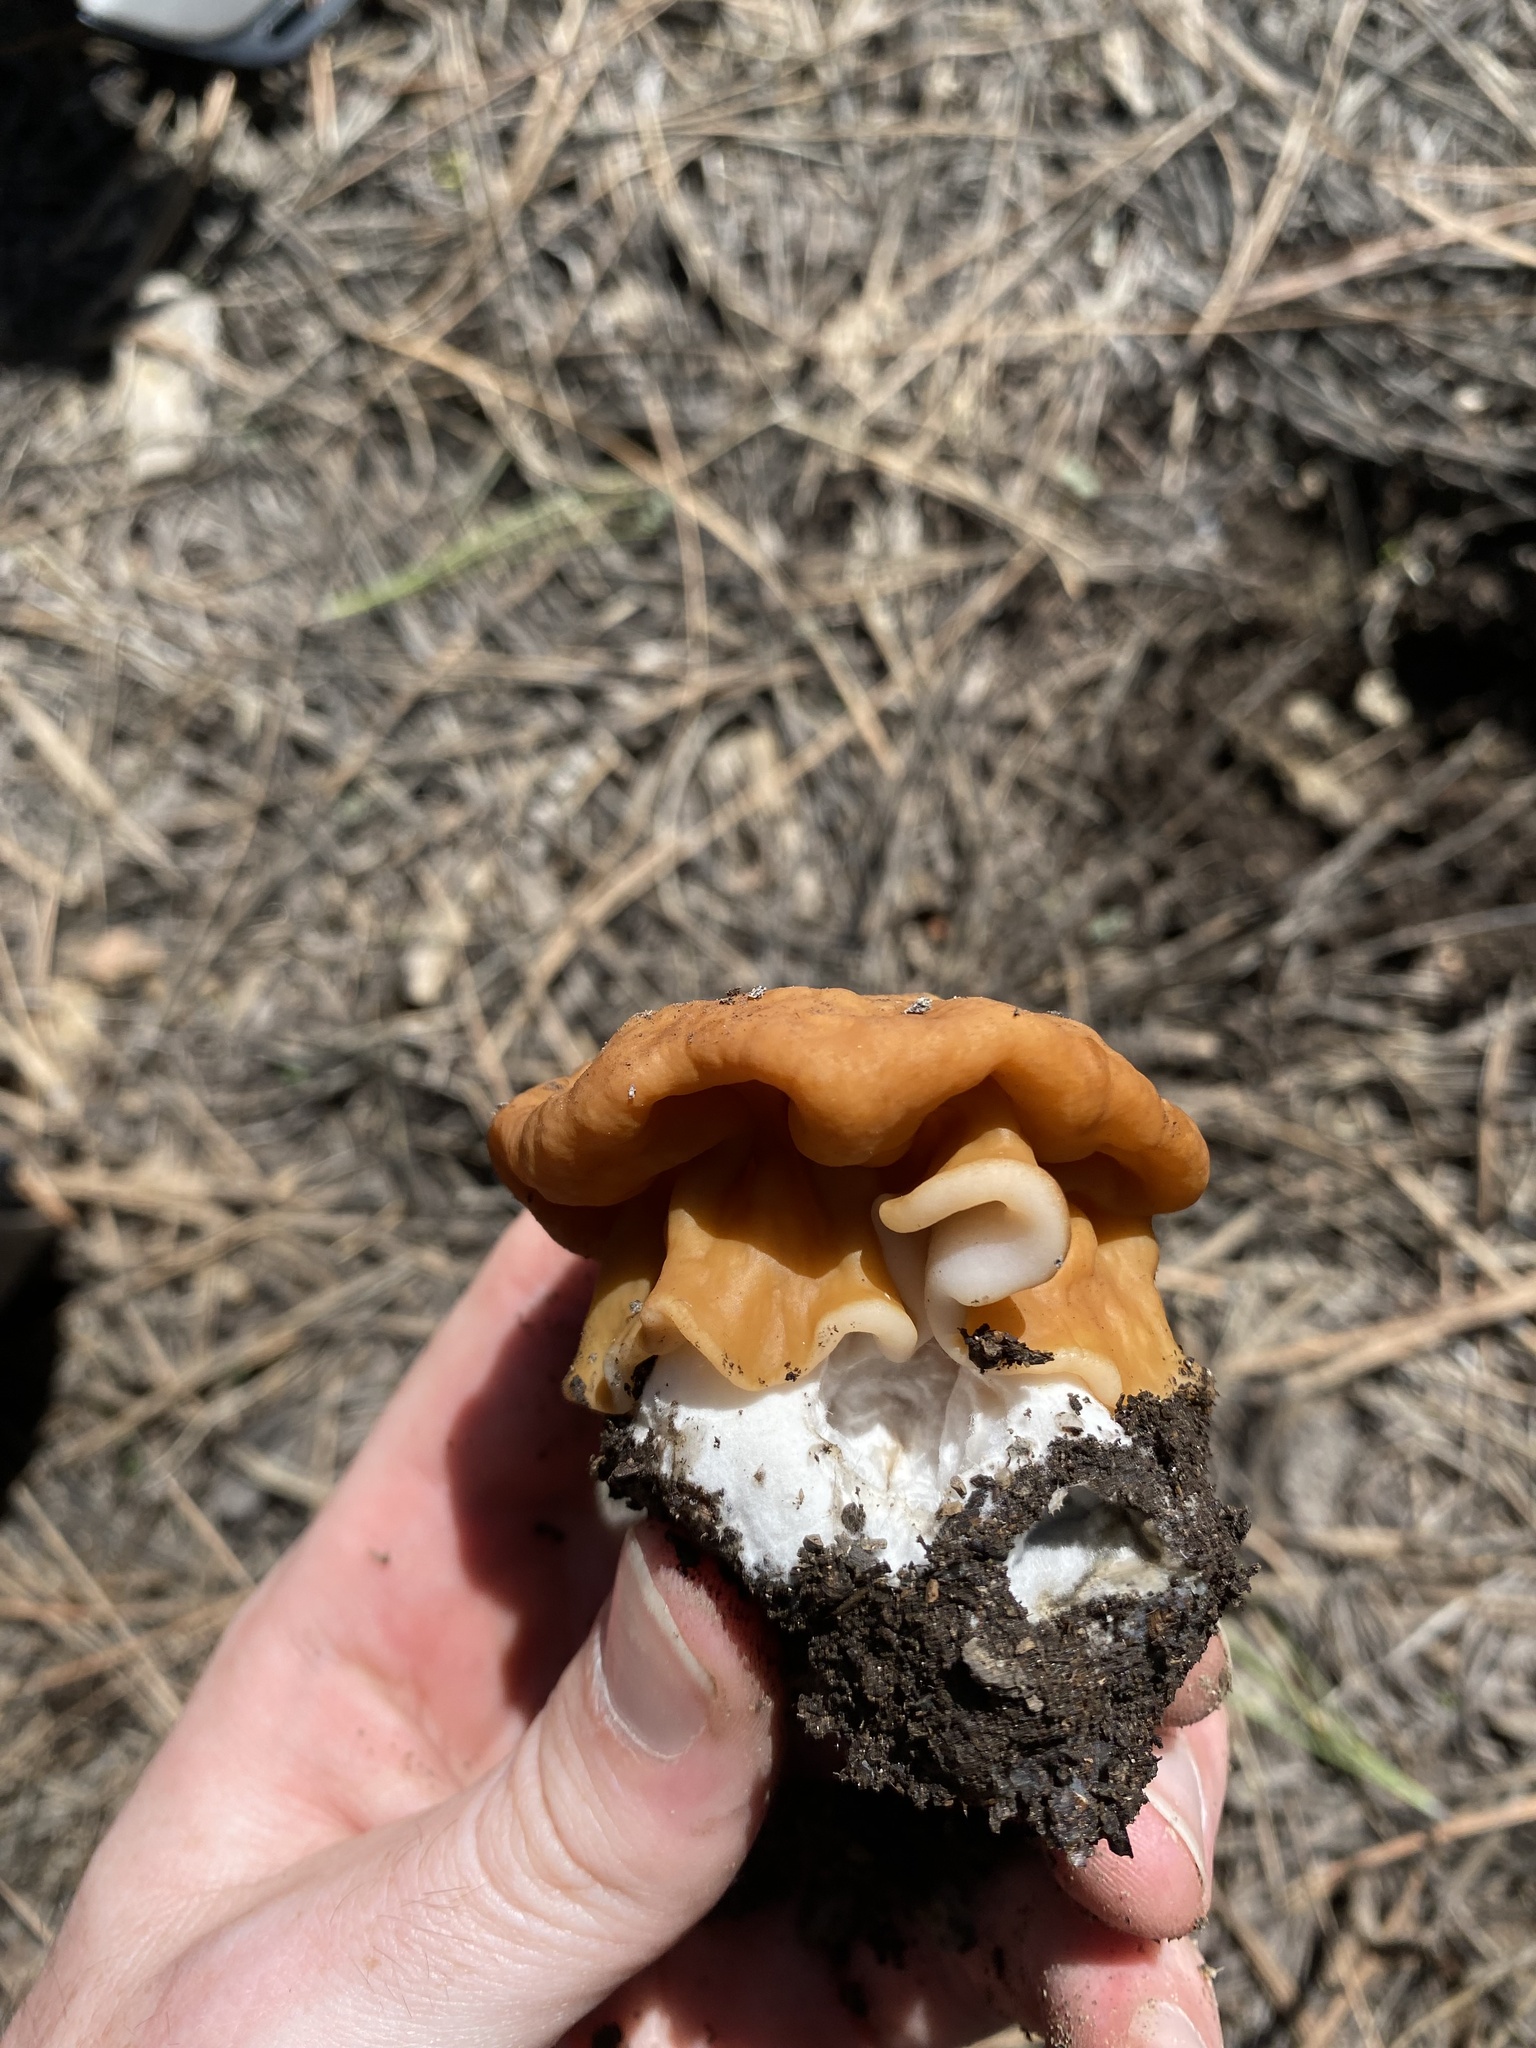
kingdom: Fungi
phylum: Ascomycota
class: Pezizomycetes
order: Pezizales
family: Discinaceae
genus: Discina
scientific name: Discina montana
